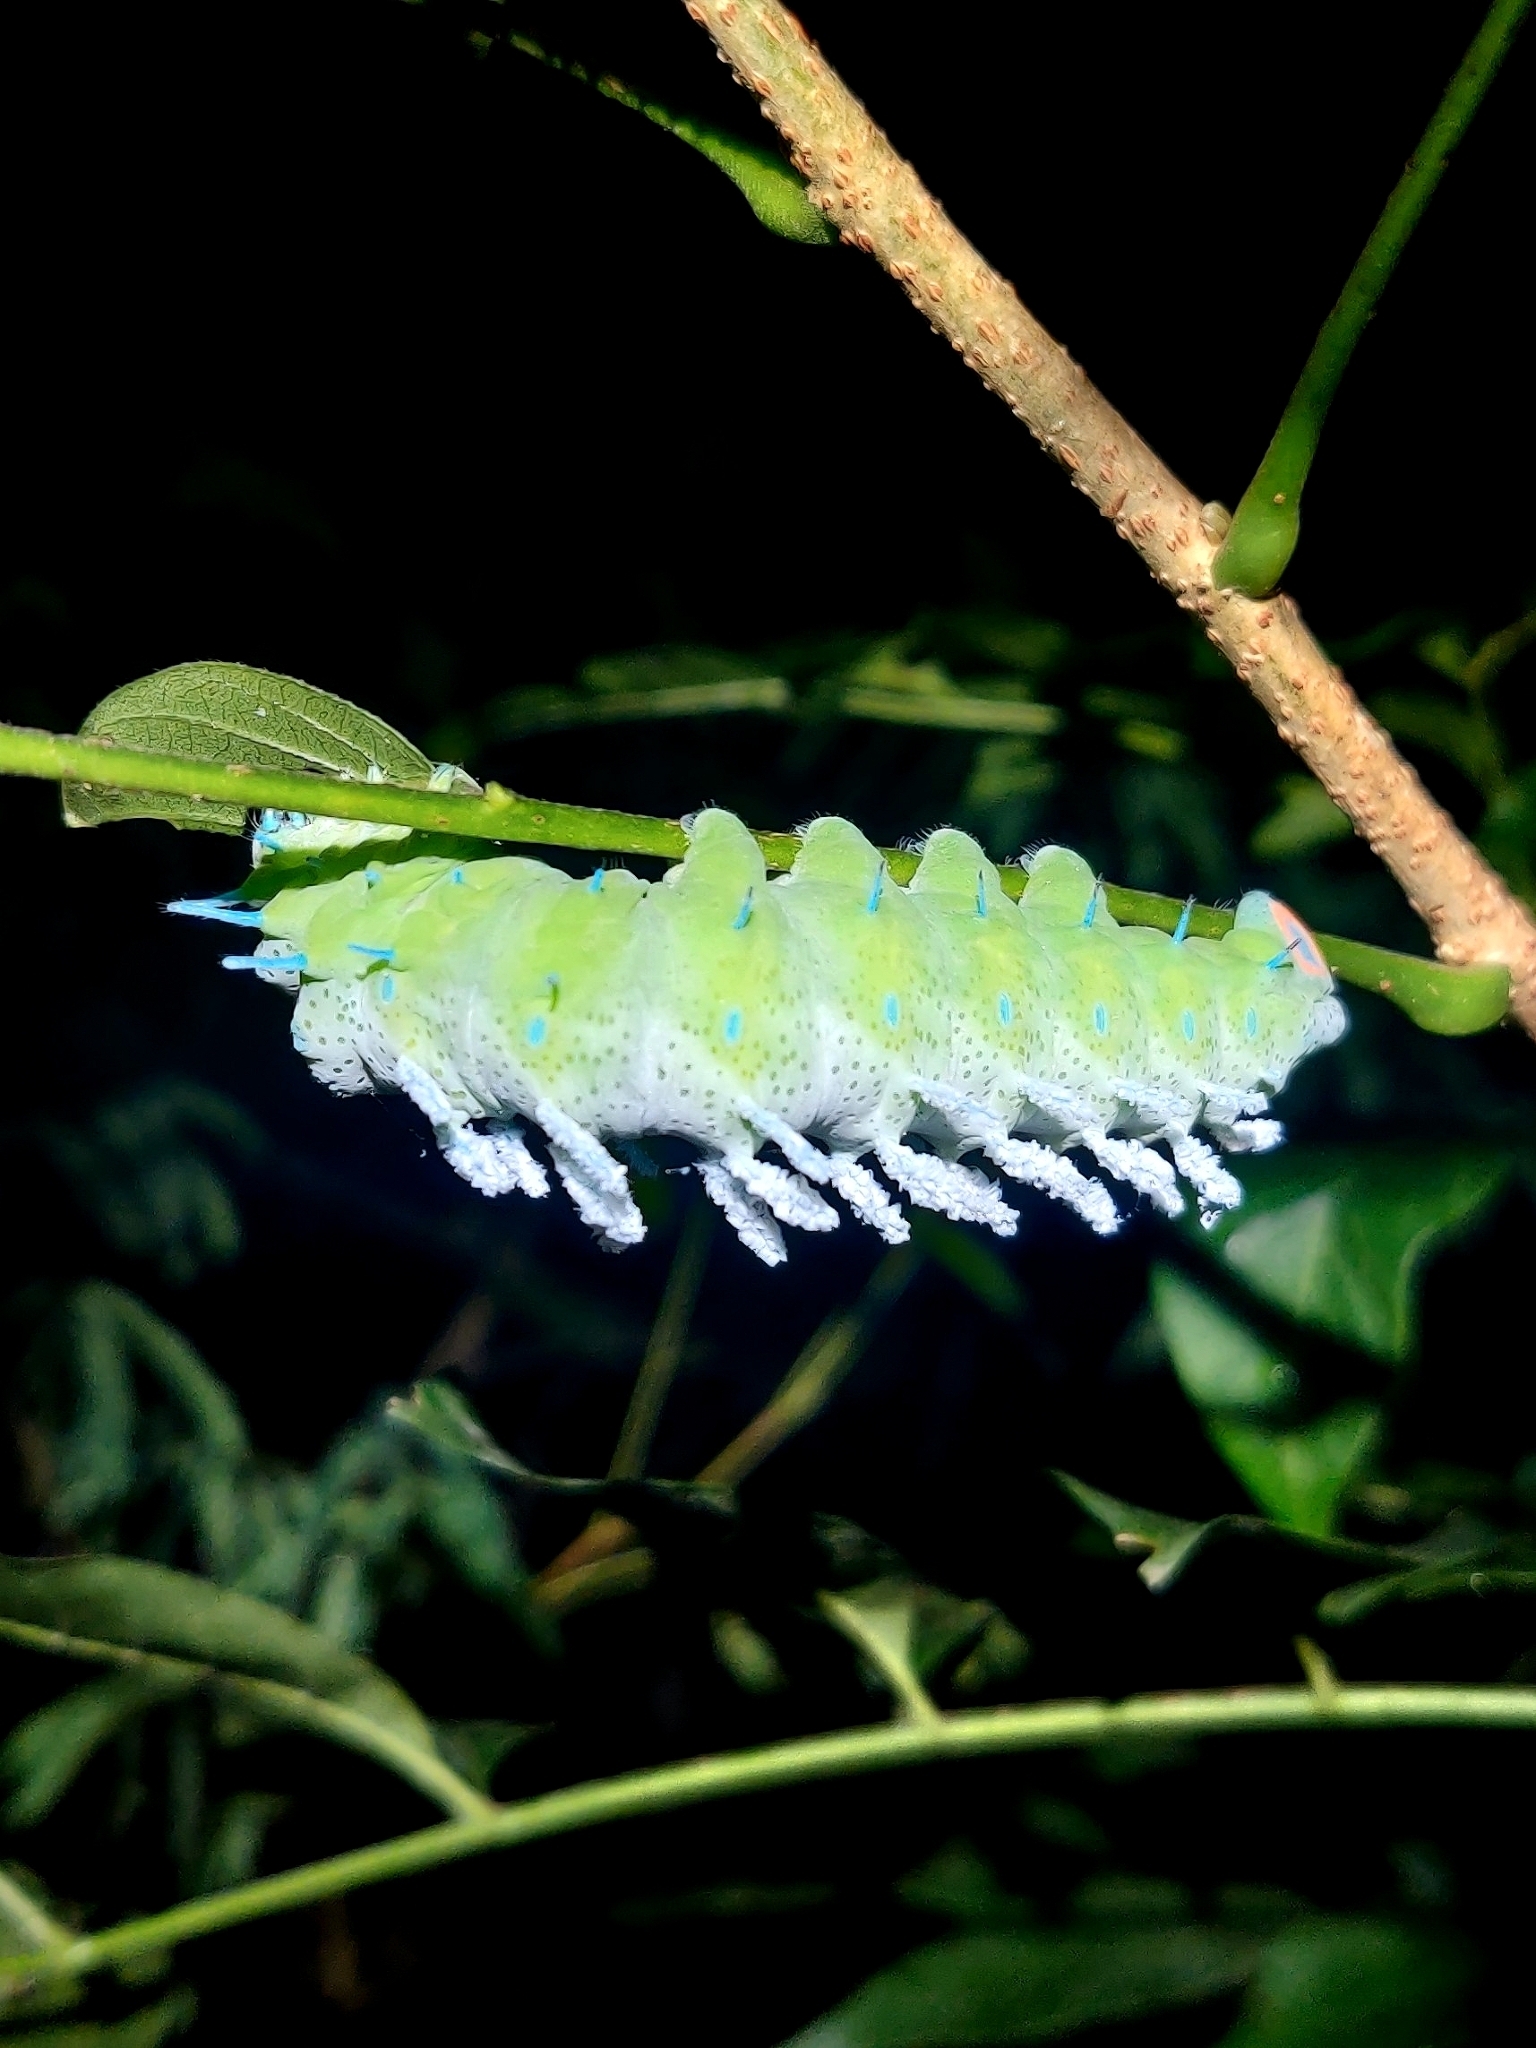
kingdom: Animalia
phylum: Arthropoda
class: Insecta
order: Lepidoptera
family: Saturniidae
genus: Attacus
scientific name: Attacus taprobanis
